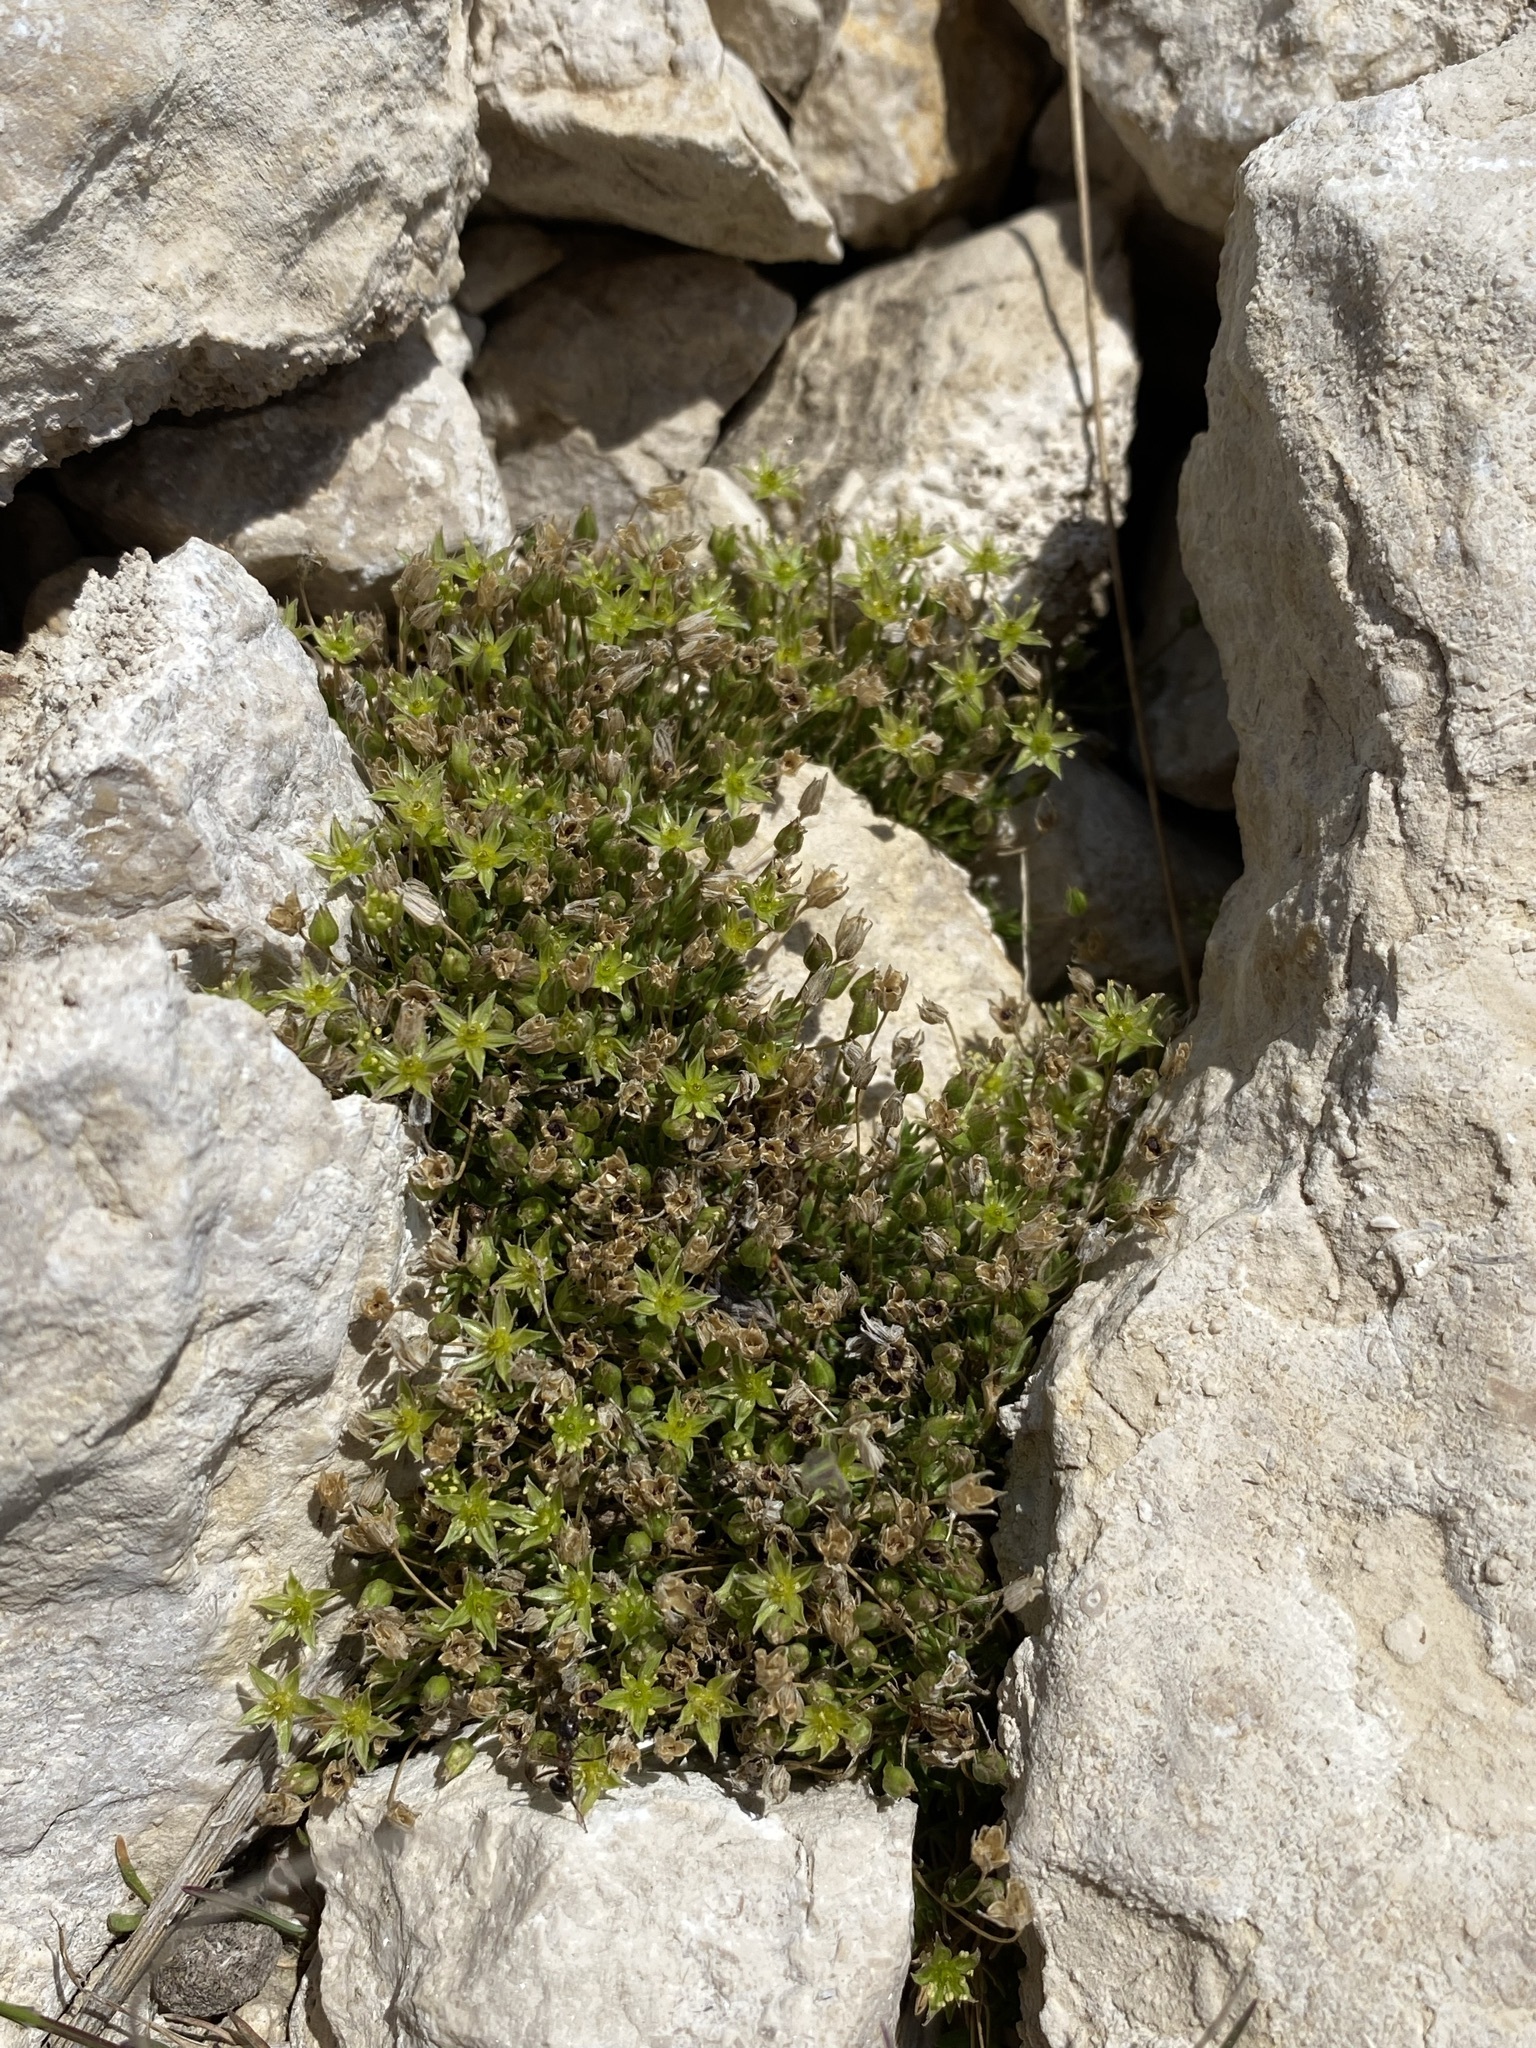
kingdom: Plantae
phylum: Tracheophyta
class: Magnoliopsida
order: Caryophyllales
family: Caryophyllaceae
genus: Sabulina
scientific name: Sabulina austromontana
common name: Columbia stitchwort
